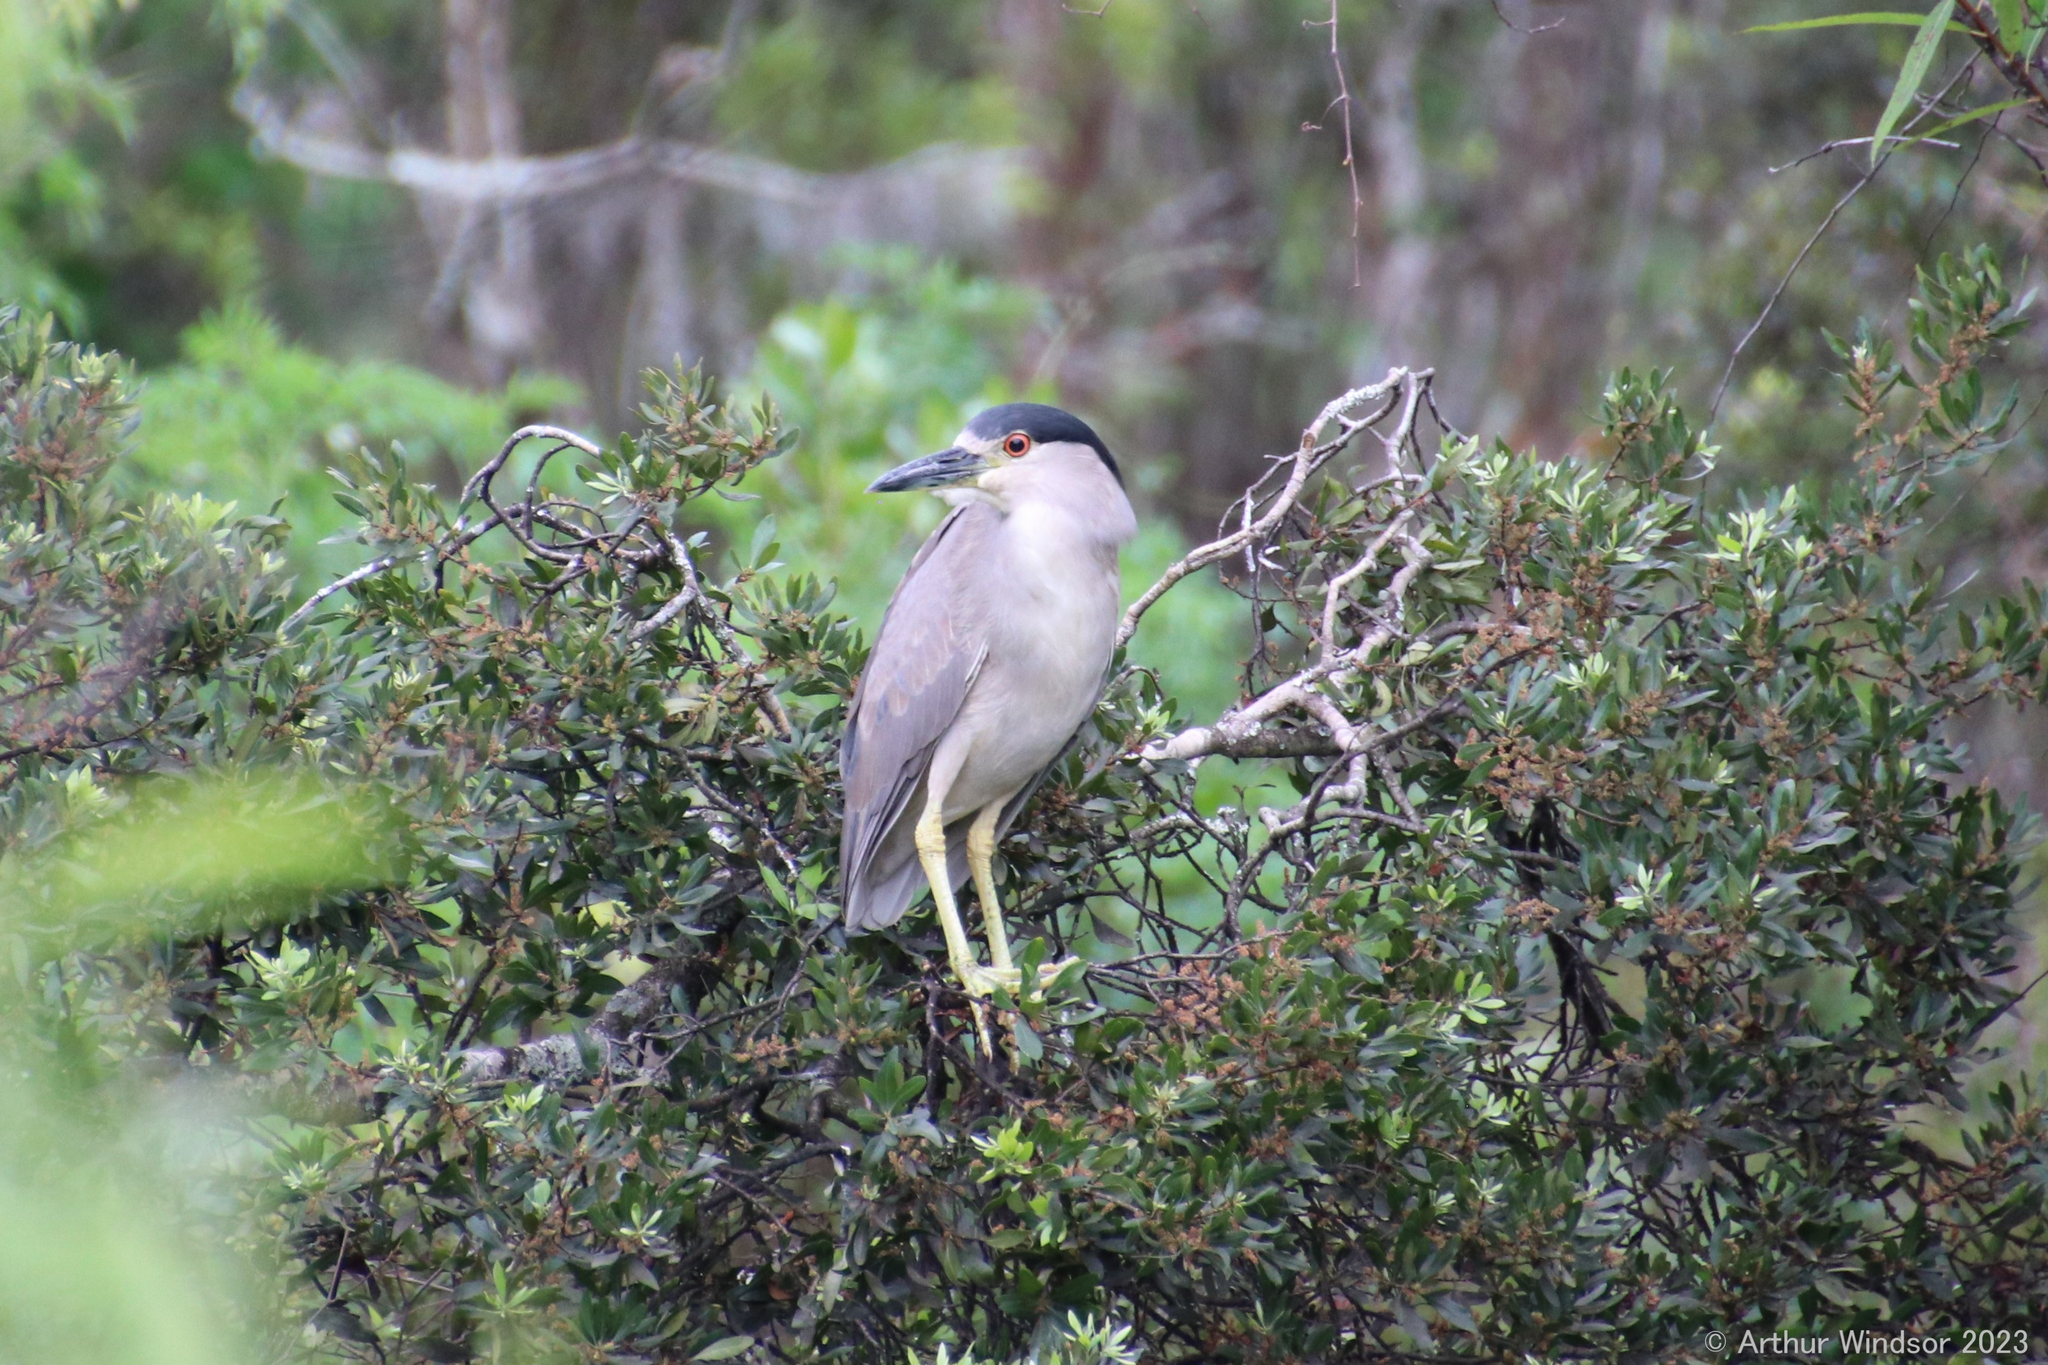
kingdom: Animalia
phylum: Chordata
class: Aves
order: Pelecaniformes
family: Ardeidae
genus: Nycticorax
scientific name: Nycticorax nycticorax
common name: Black-crowned night heron
